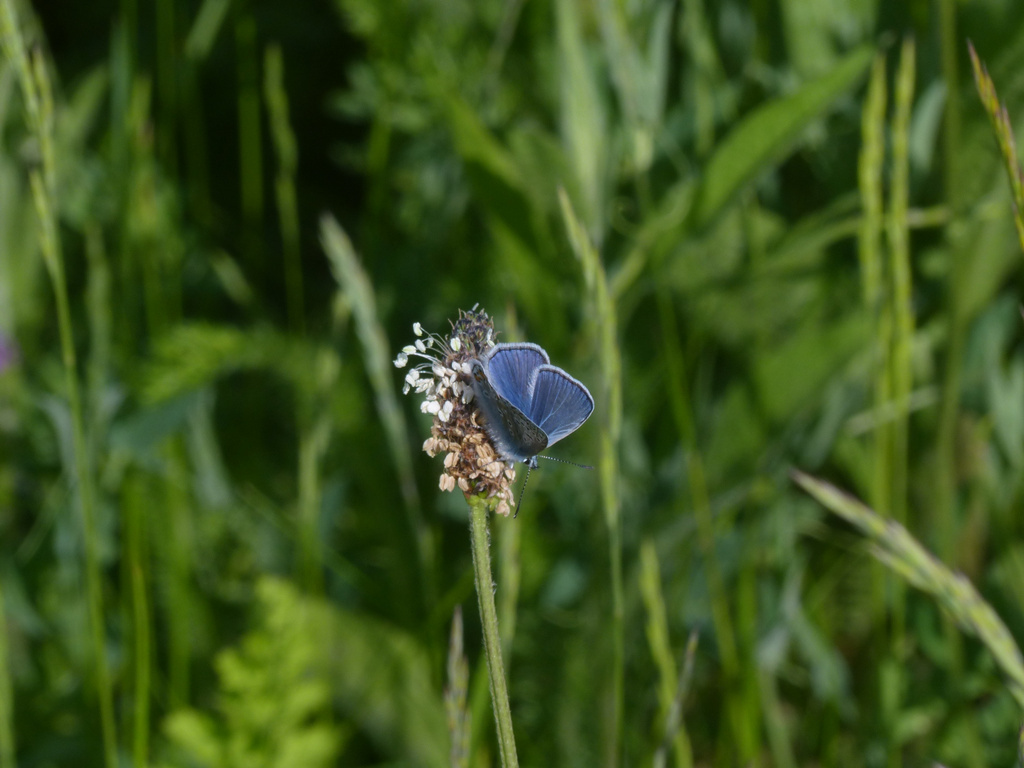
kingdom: Animalia
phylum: Arthropoda
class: Insecta
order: Lepidoptera
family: Lycaenidae
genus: Polyommatus
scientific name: Polyommatus icarus
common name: Common blue
